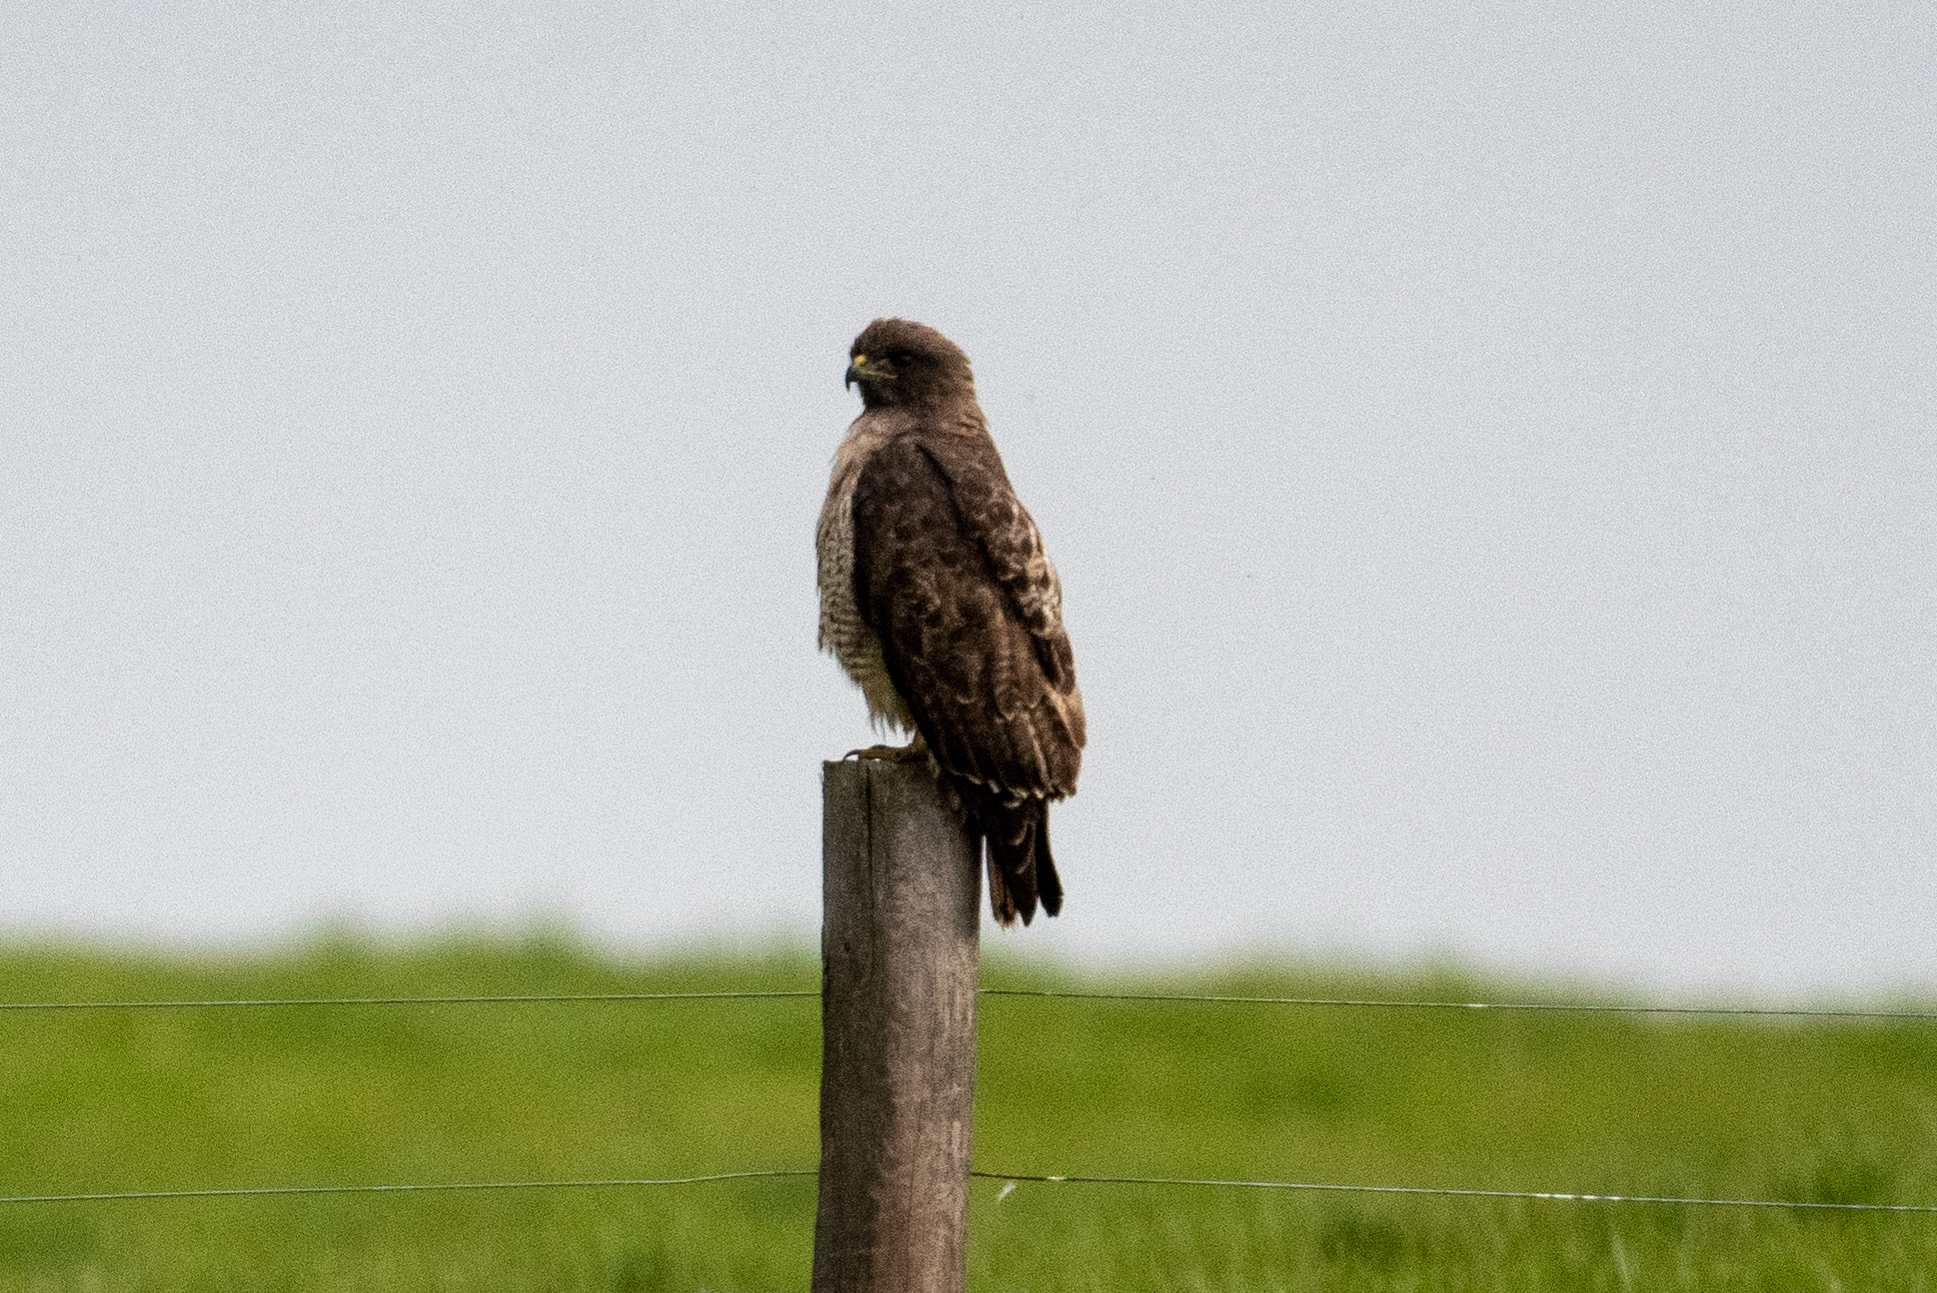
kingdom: Animalia
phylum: Chordata
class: Aves
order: Accipitriformes
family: Accipitridae
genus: Buteo
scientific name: Buteo jamaicensis
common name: Red-tailed hawk
